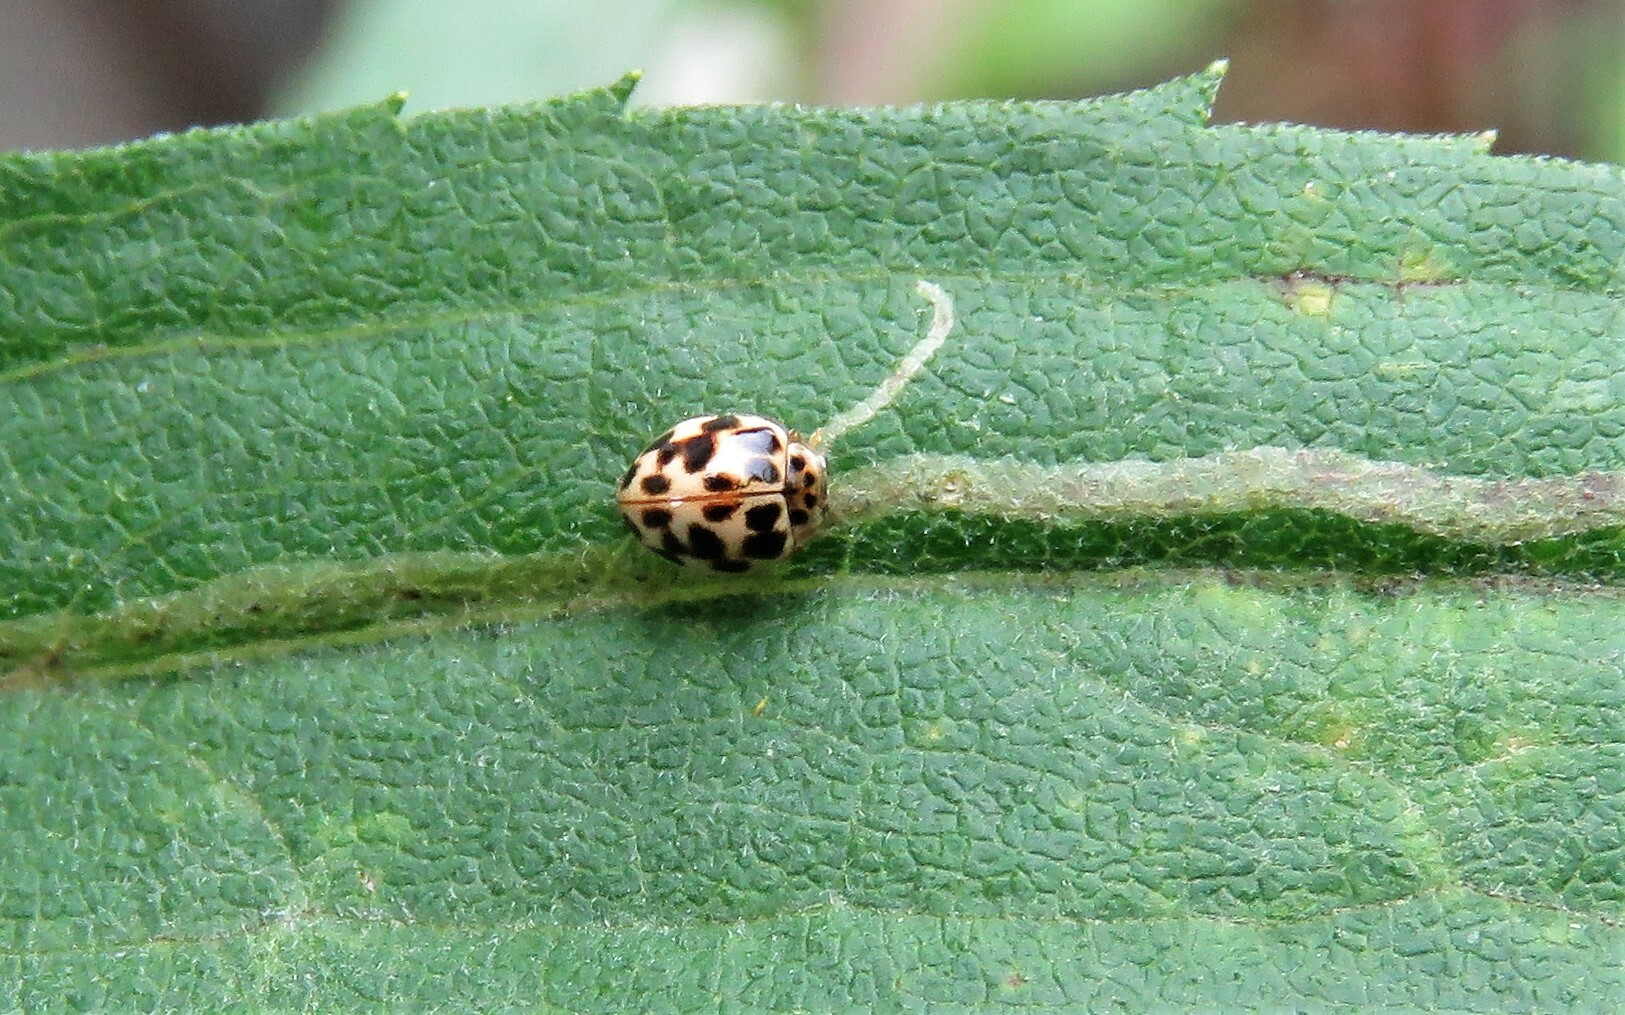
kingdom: Animalia
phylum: Arthropoda
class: Insecta
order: Coleoptera
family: Coccinellidae
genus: Psyllobora
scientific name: Psyllobora vigintimaculata
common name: Ladybird beetle
